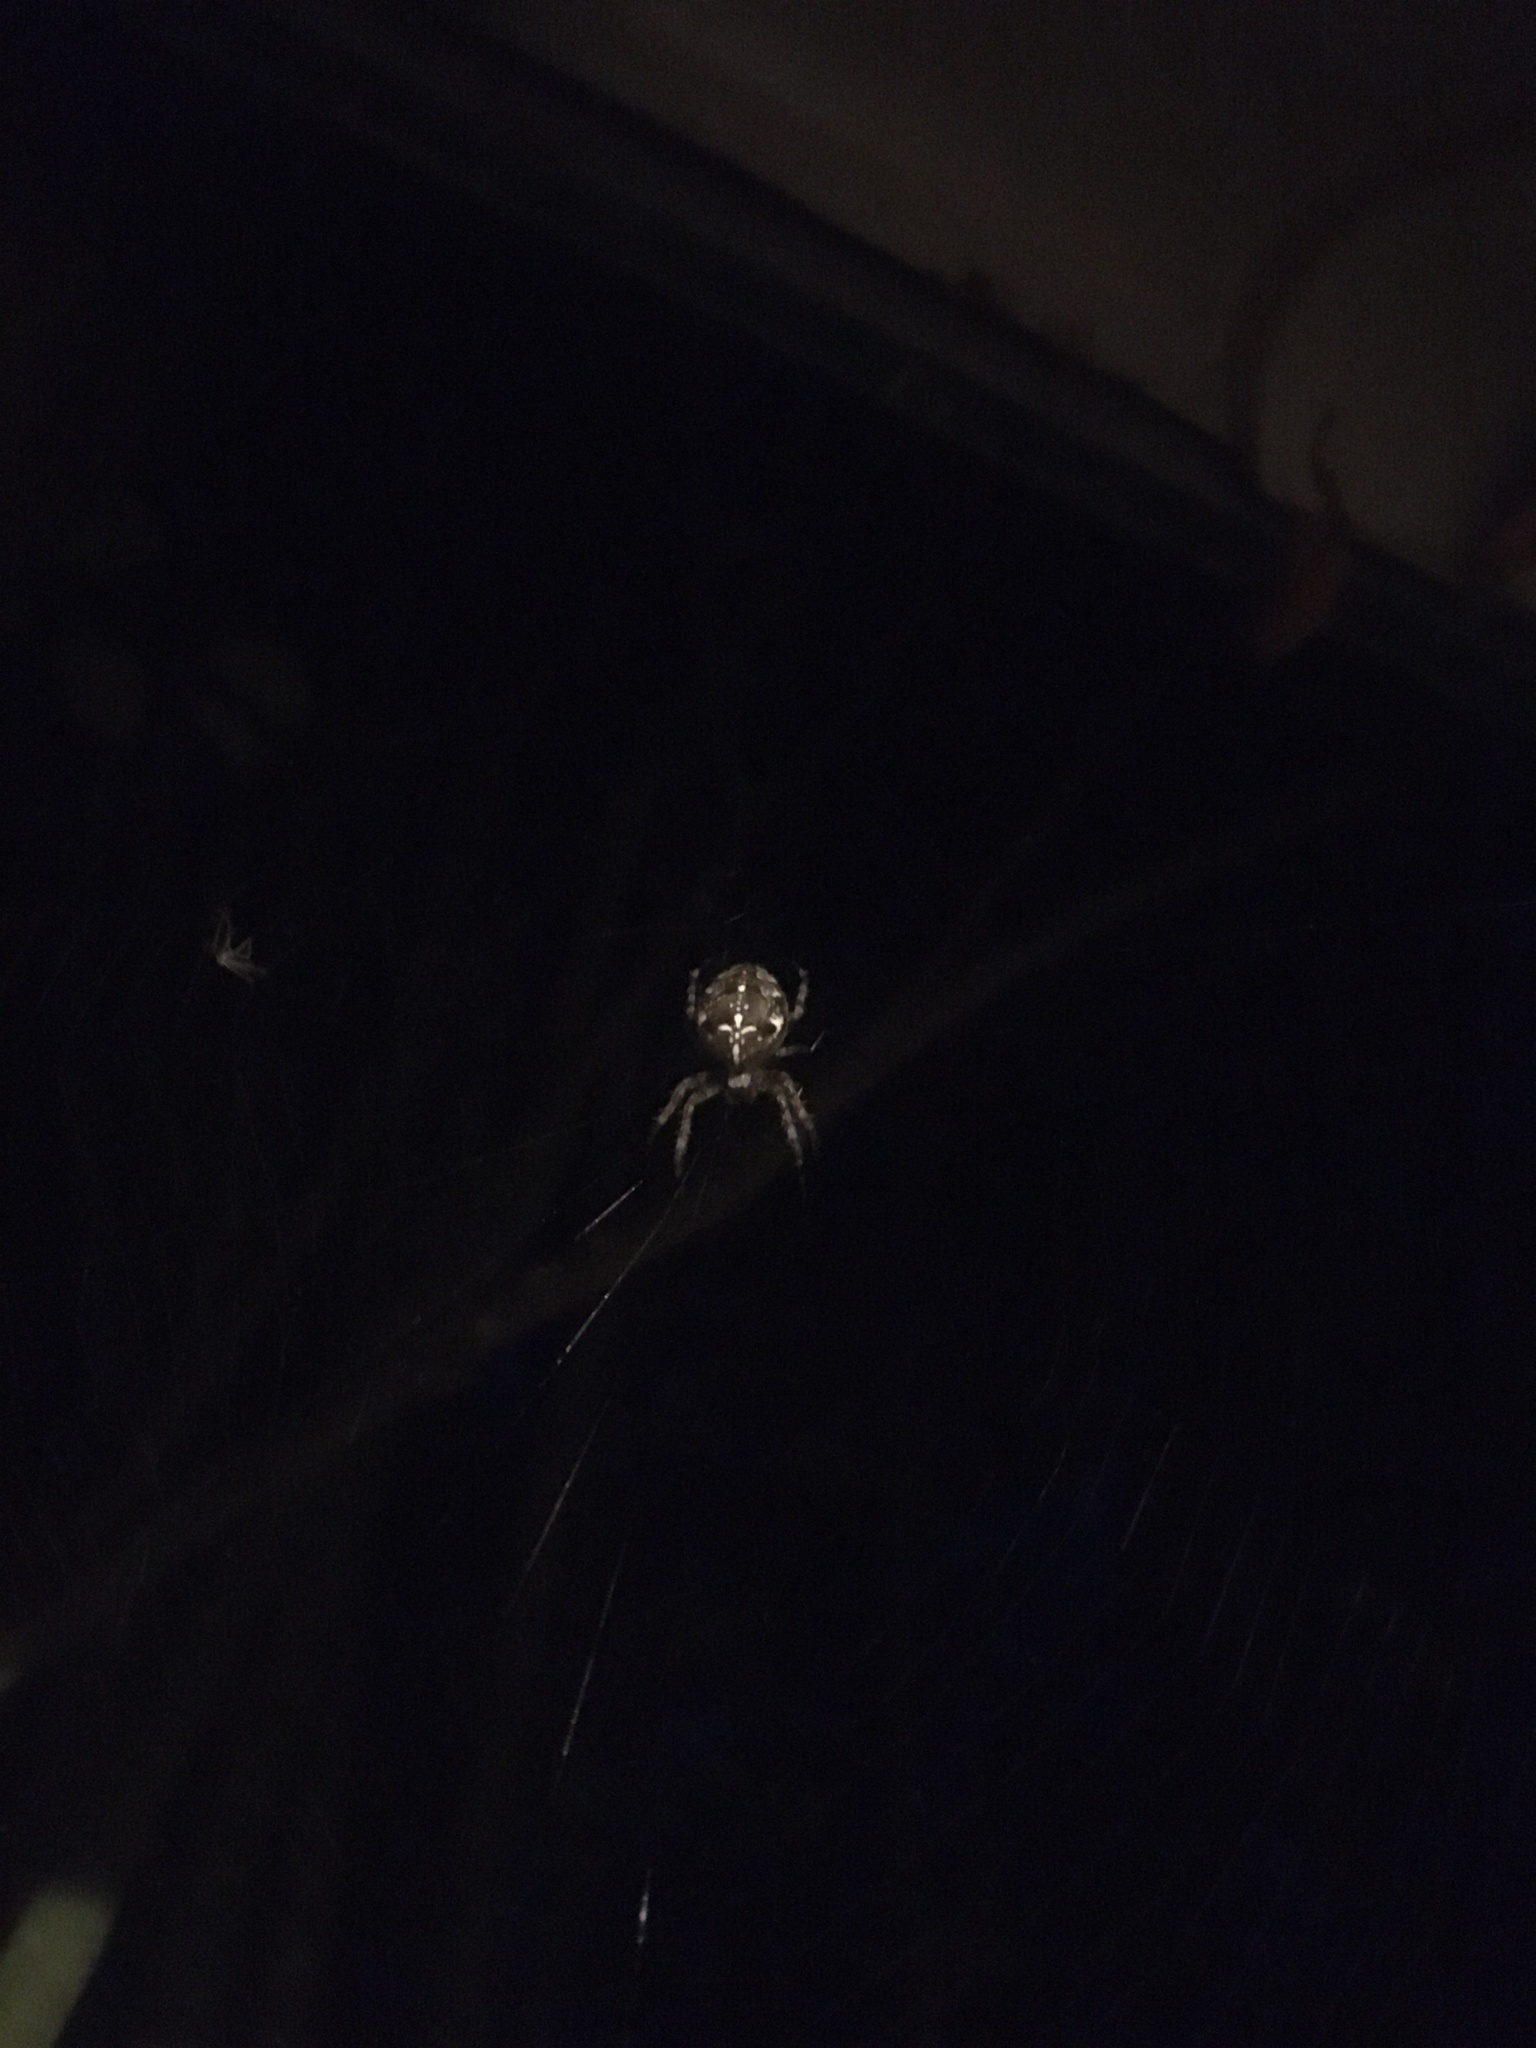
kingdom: Animalia
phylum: Arthropoda
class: Arachnida
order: Araneae
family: Araneidae
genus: Araneus
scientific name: Araneus diadematus
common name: Cross orbweaver
